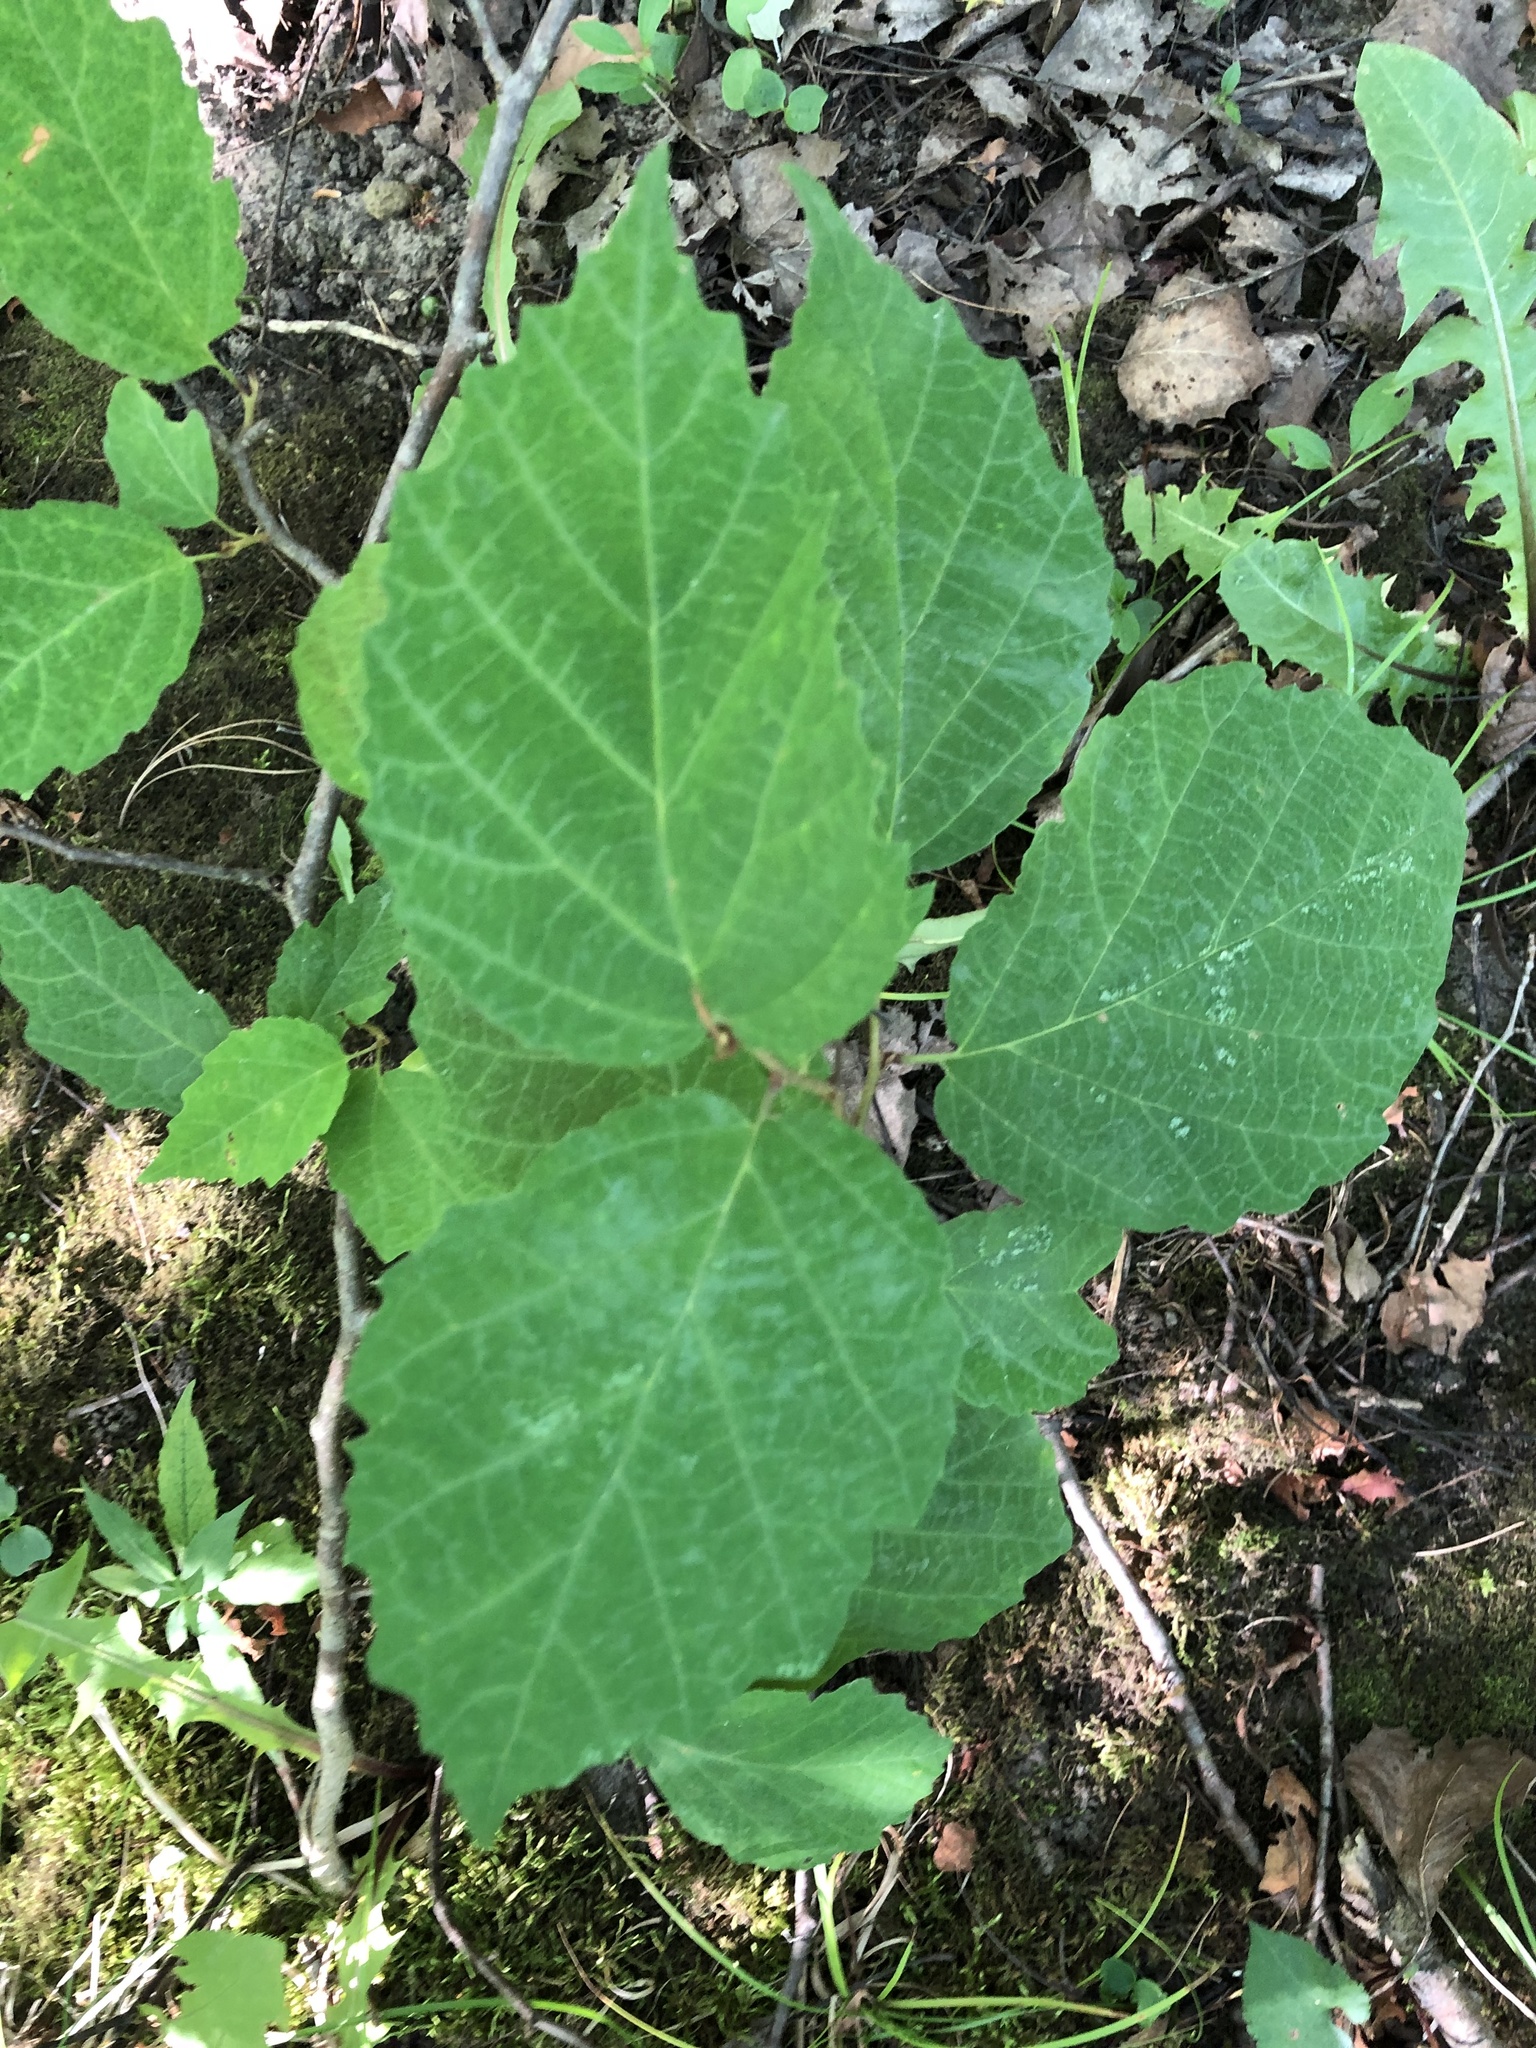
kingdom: Plantae
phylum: Tracheophyta
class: Magnoliopsida
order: Saxifragales
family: Hamamelidaceae
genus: Hamamelis
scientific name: Hamamelis virginiana
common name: Witch-hazel
